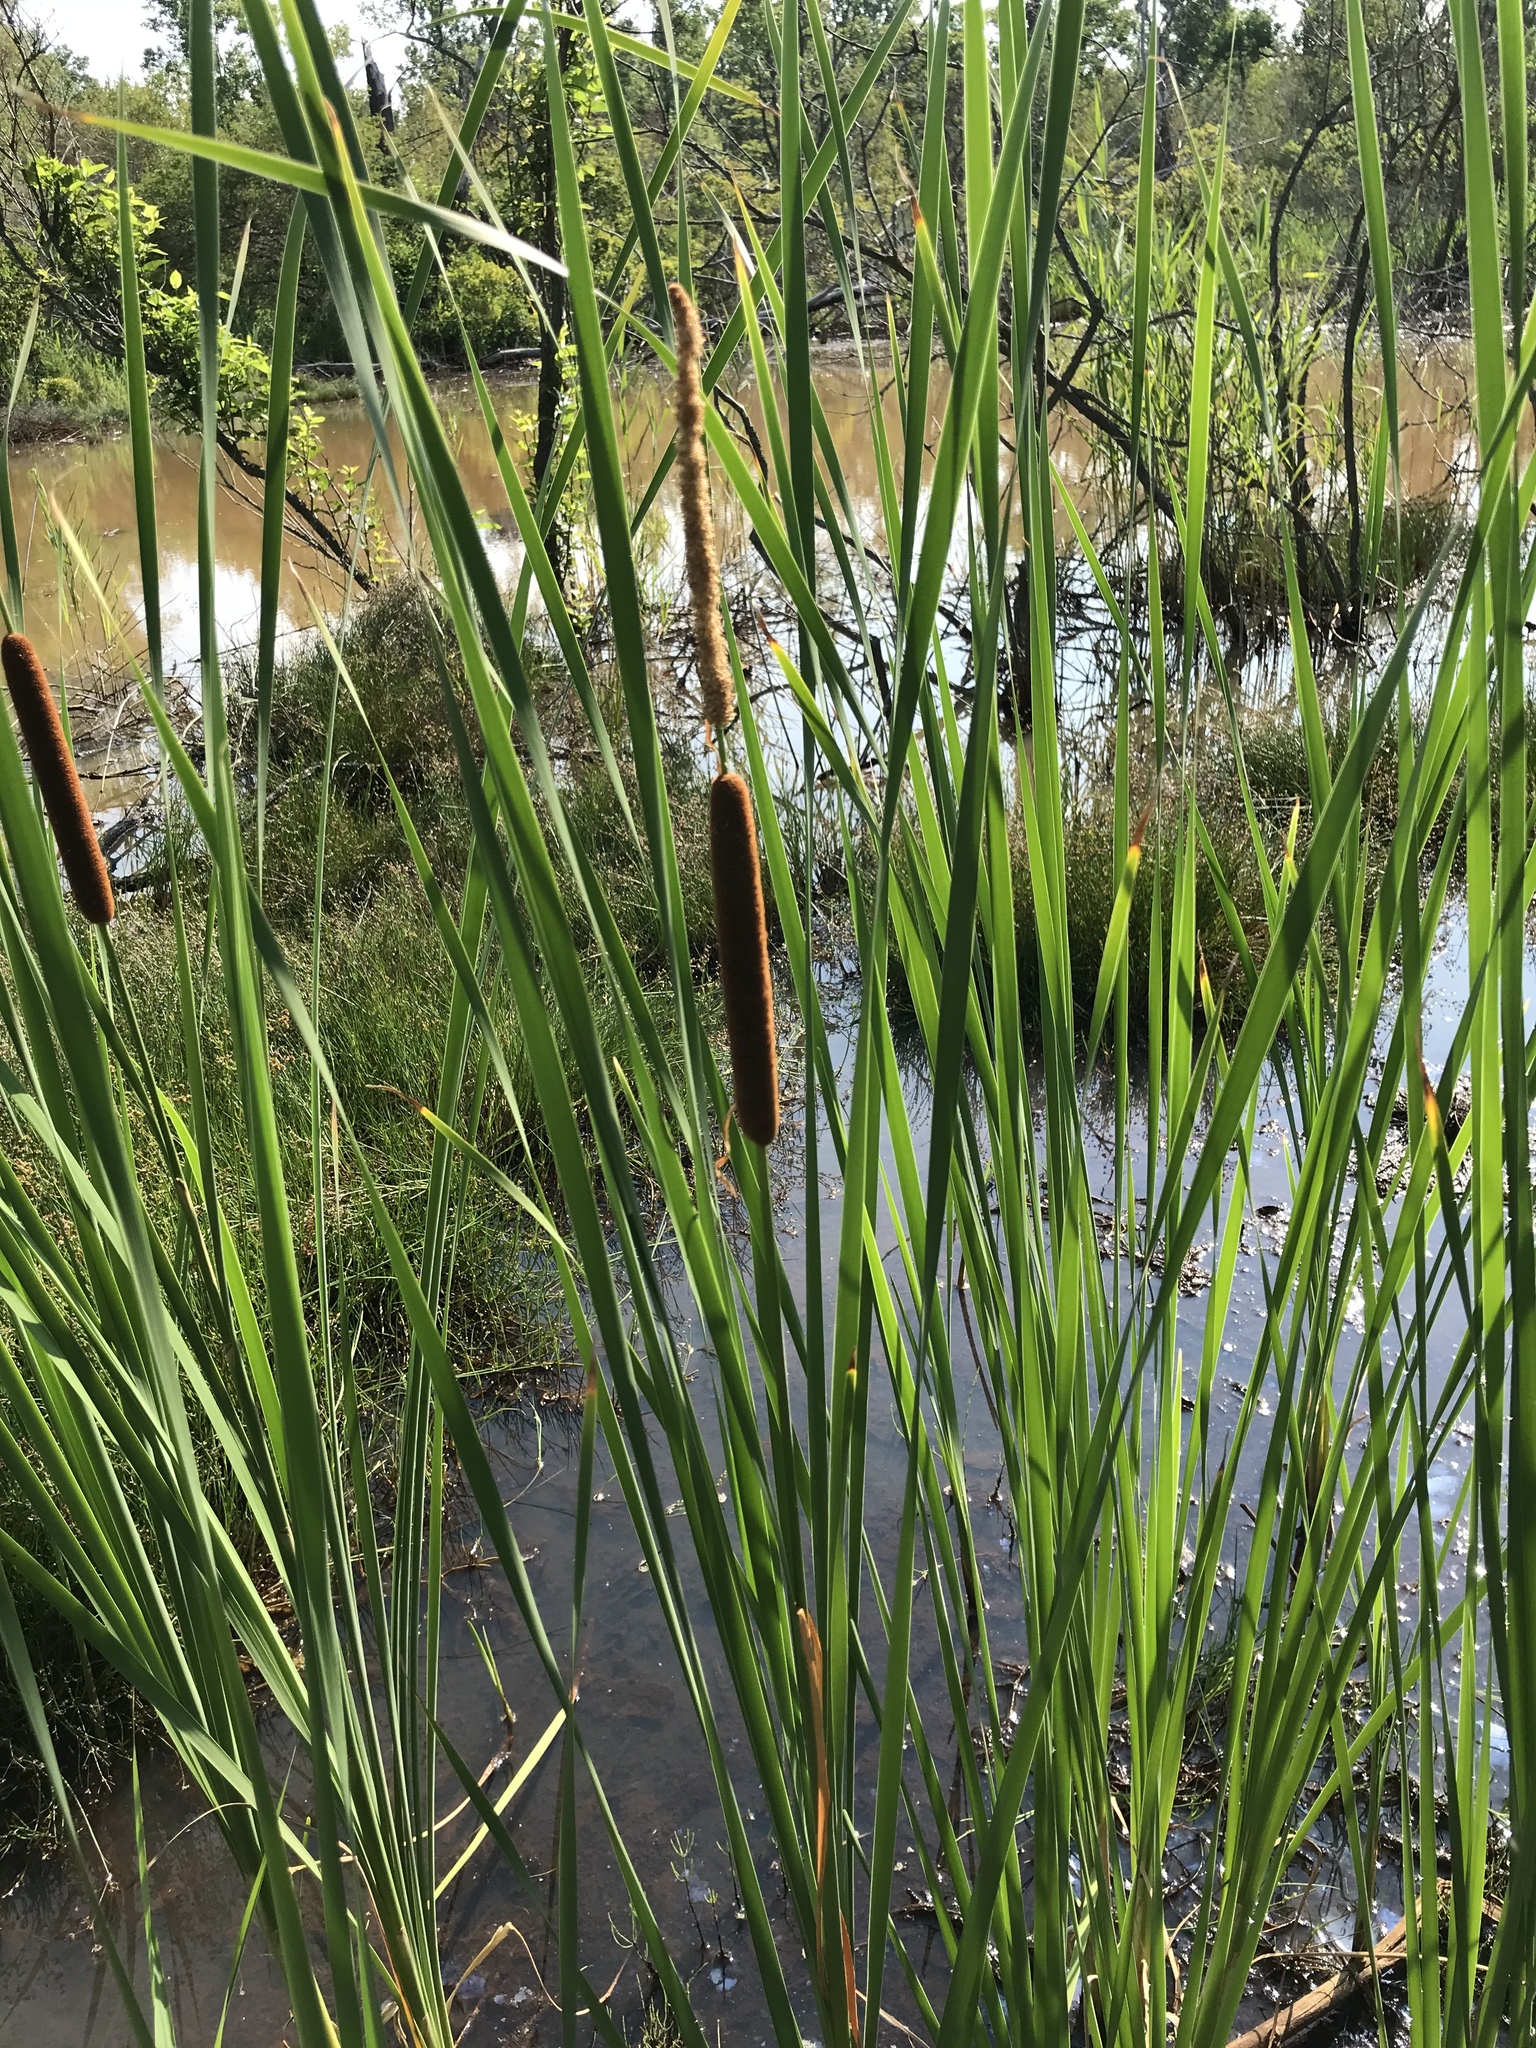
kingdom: Plantae
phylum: Tracheophyta
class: Liliopsida
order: Poales
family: Typhaceae
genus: Typha
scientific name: Typha angustifolia
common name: Lesser bulrush
